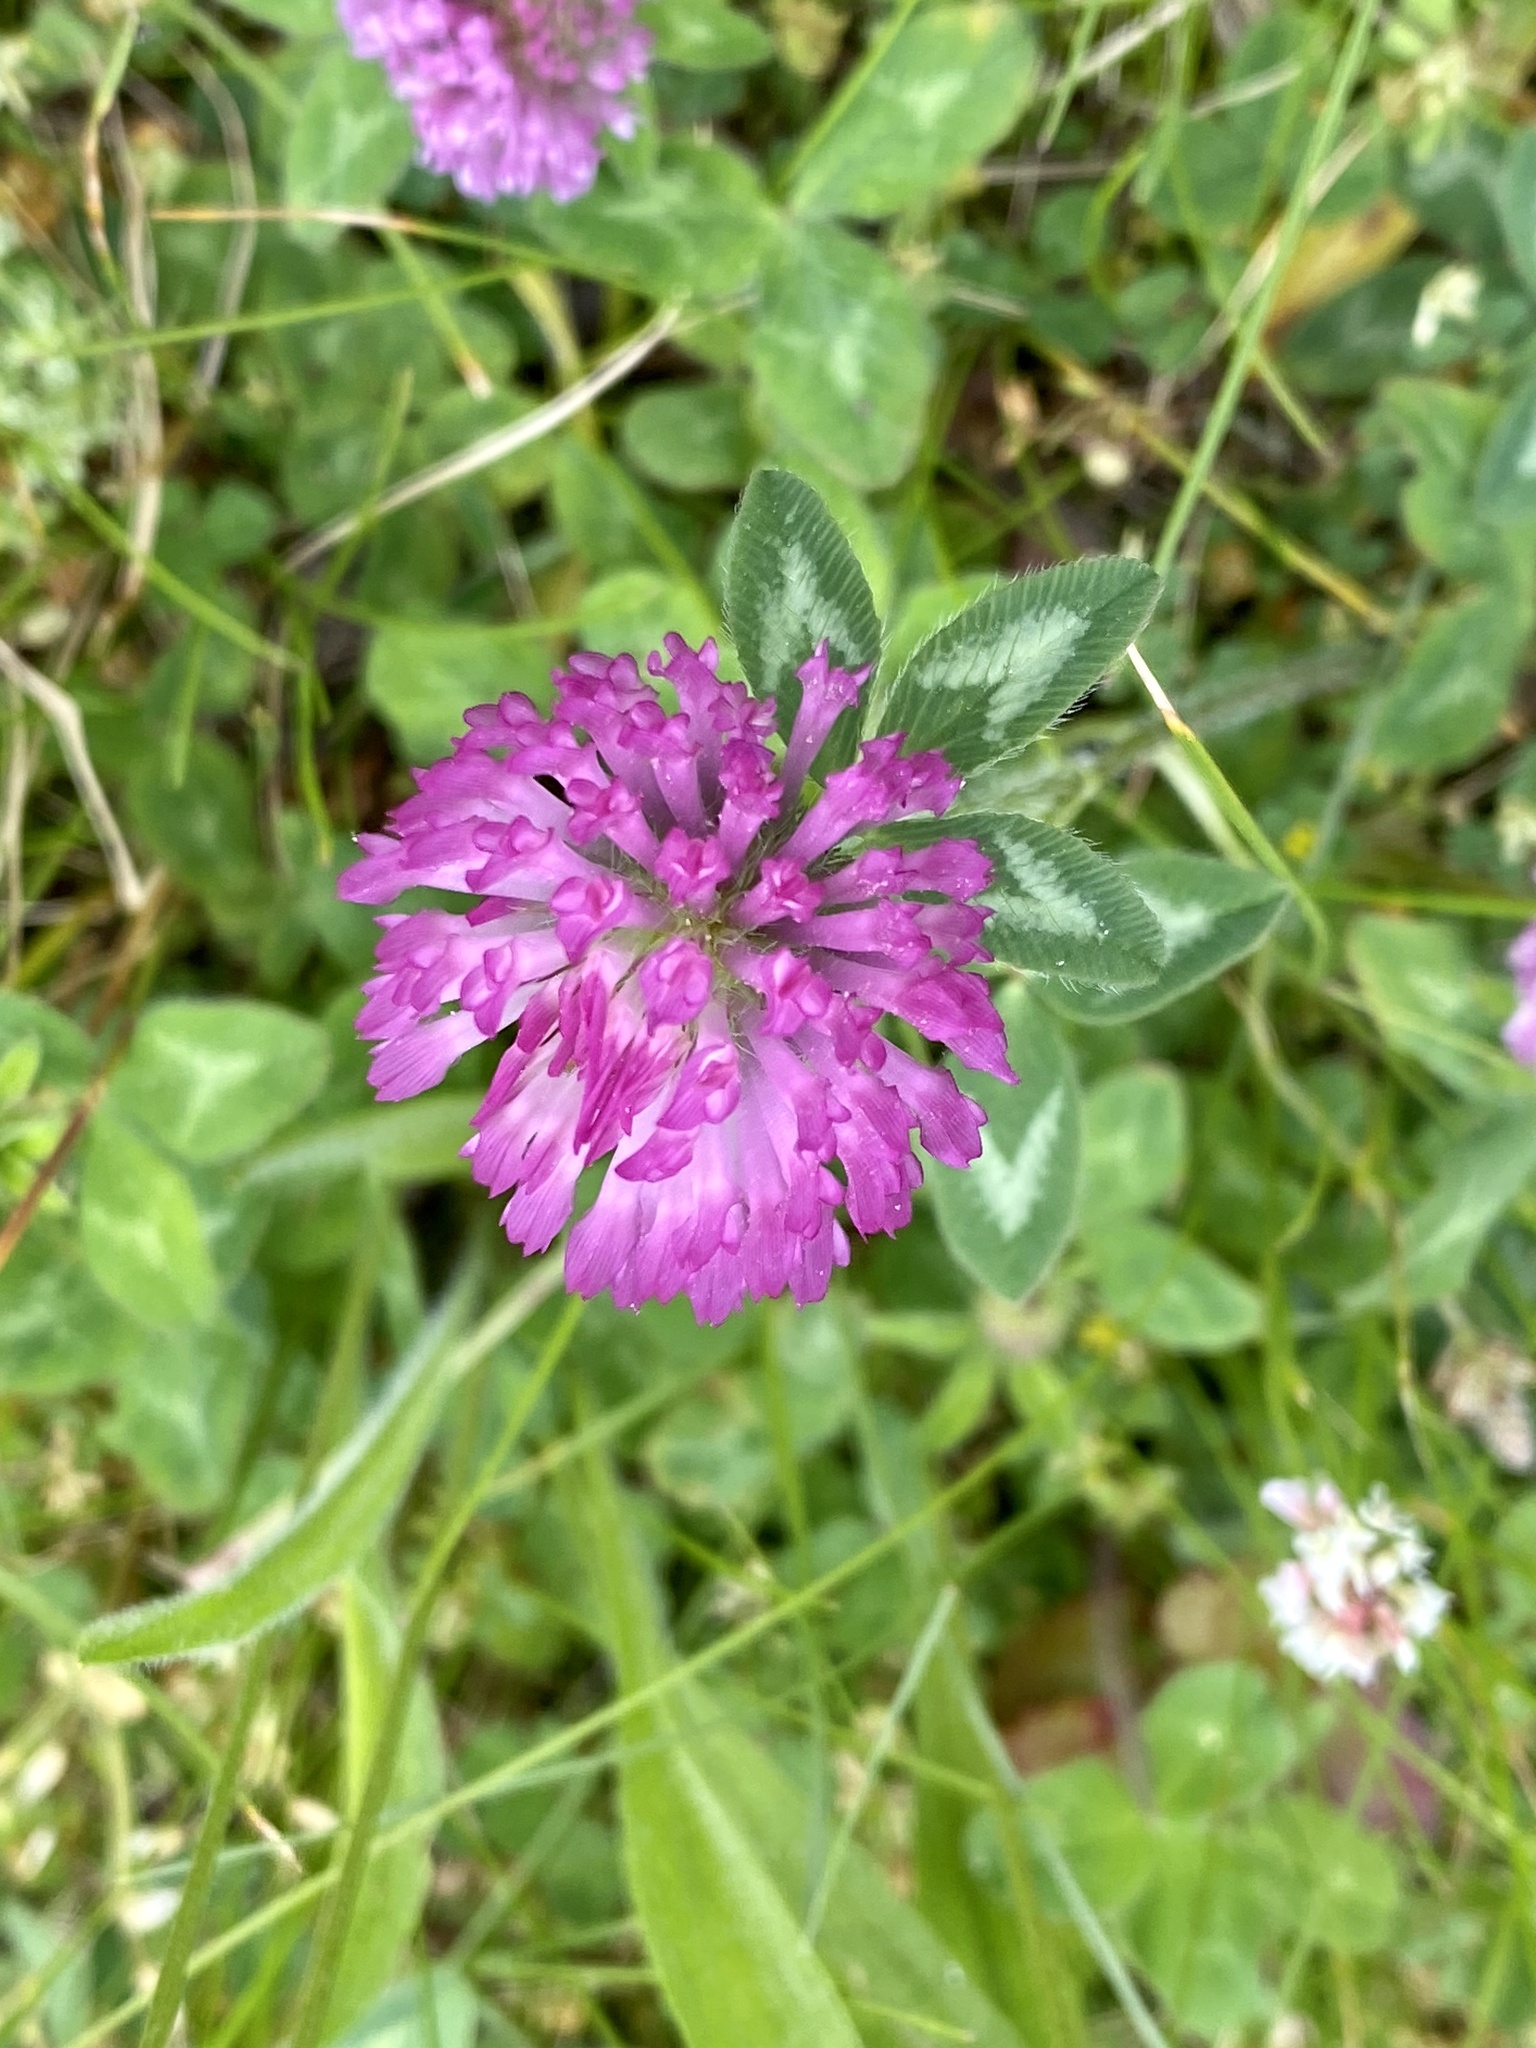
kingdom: Plantae
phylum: Tracheophyta
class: Magnoliopsida
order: Fabales
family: Fabaceae
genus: Trifolium
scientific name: Trifolium pratense
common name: Red clover
